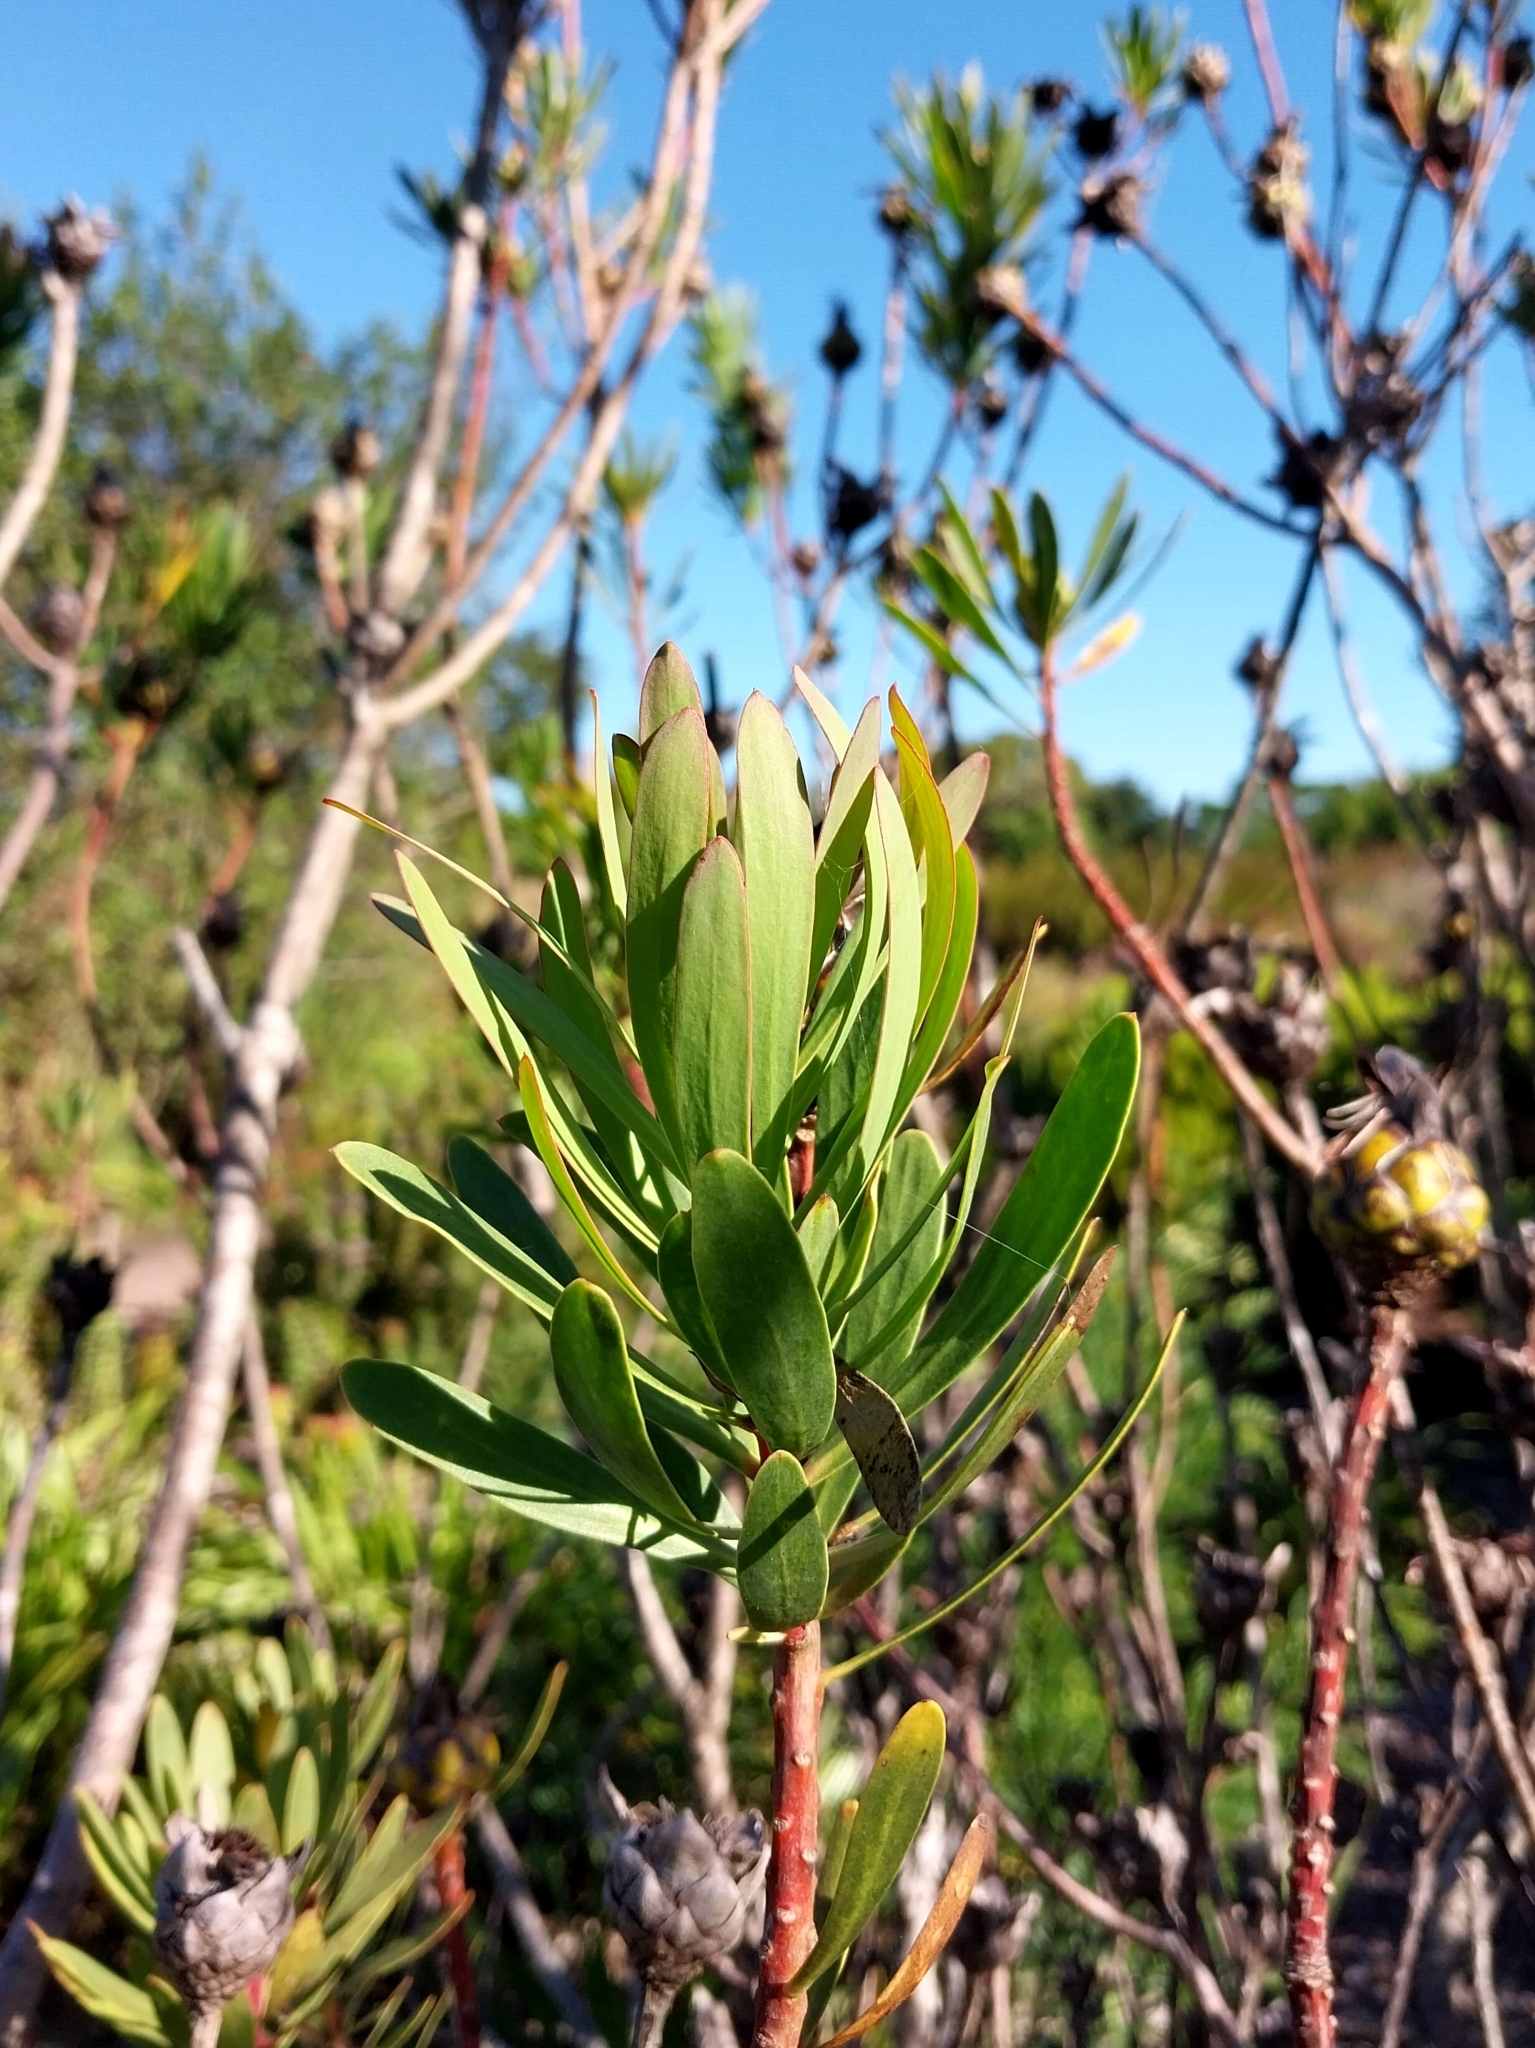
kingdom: Plantae
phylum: Tracheophyta
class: Magnoliopsida
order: Proteales
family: Proteaceae
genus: Protea
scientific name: Protea lanceolata
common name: Lance-leaved protea
